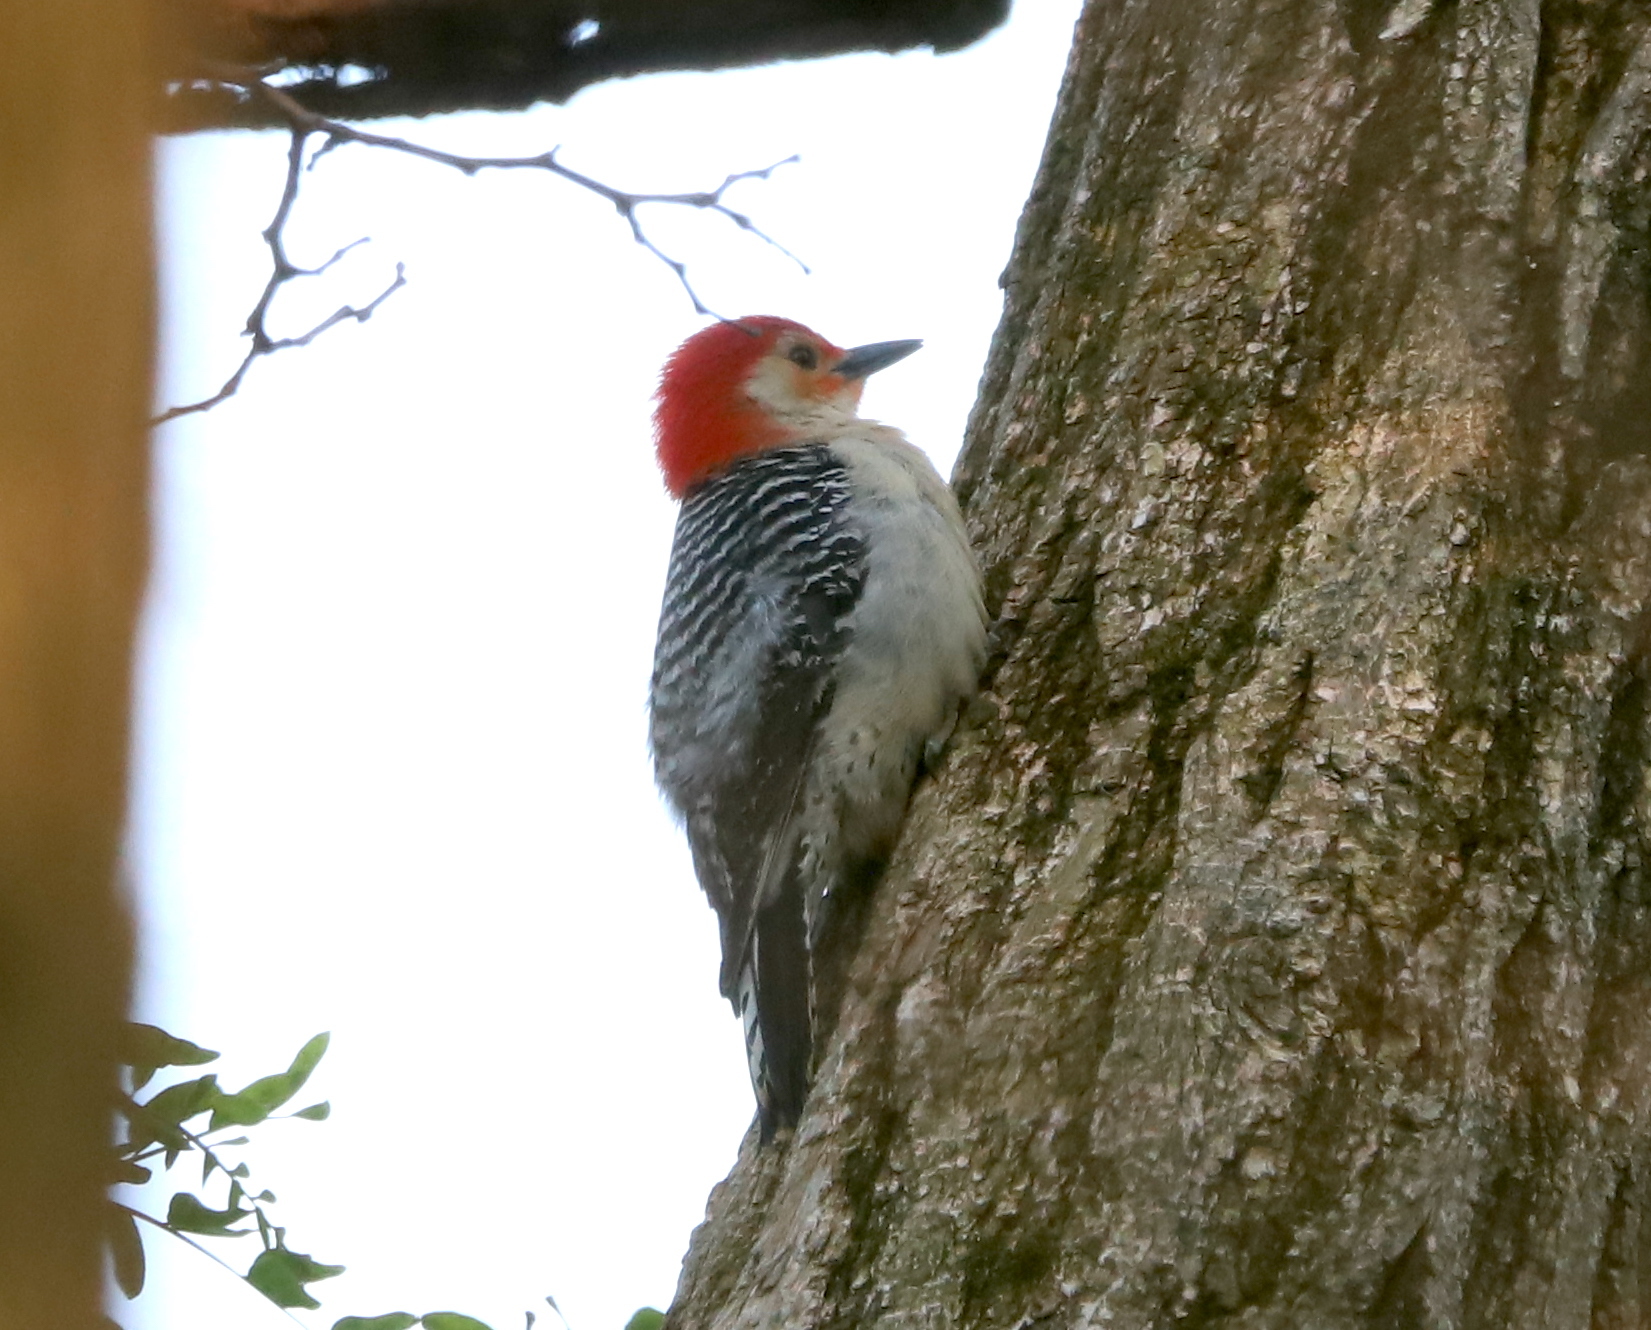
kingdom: Animalia
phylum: Chordata
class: Aves
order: Piciformes
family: Picidae
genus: Melanerpes
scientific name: Melanerpes carolinus
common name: Red-bellied woodpecker
